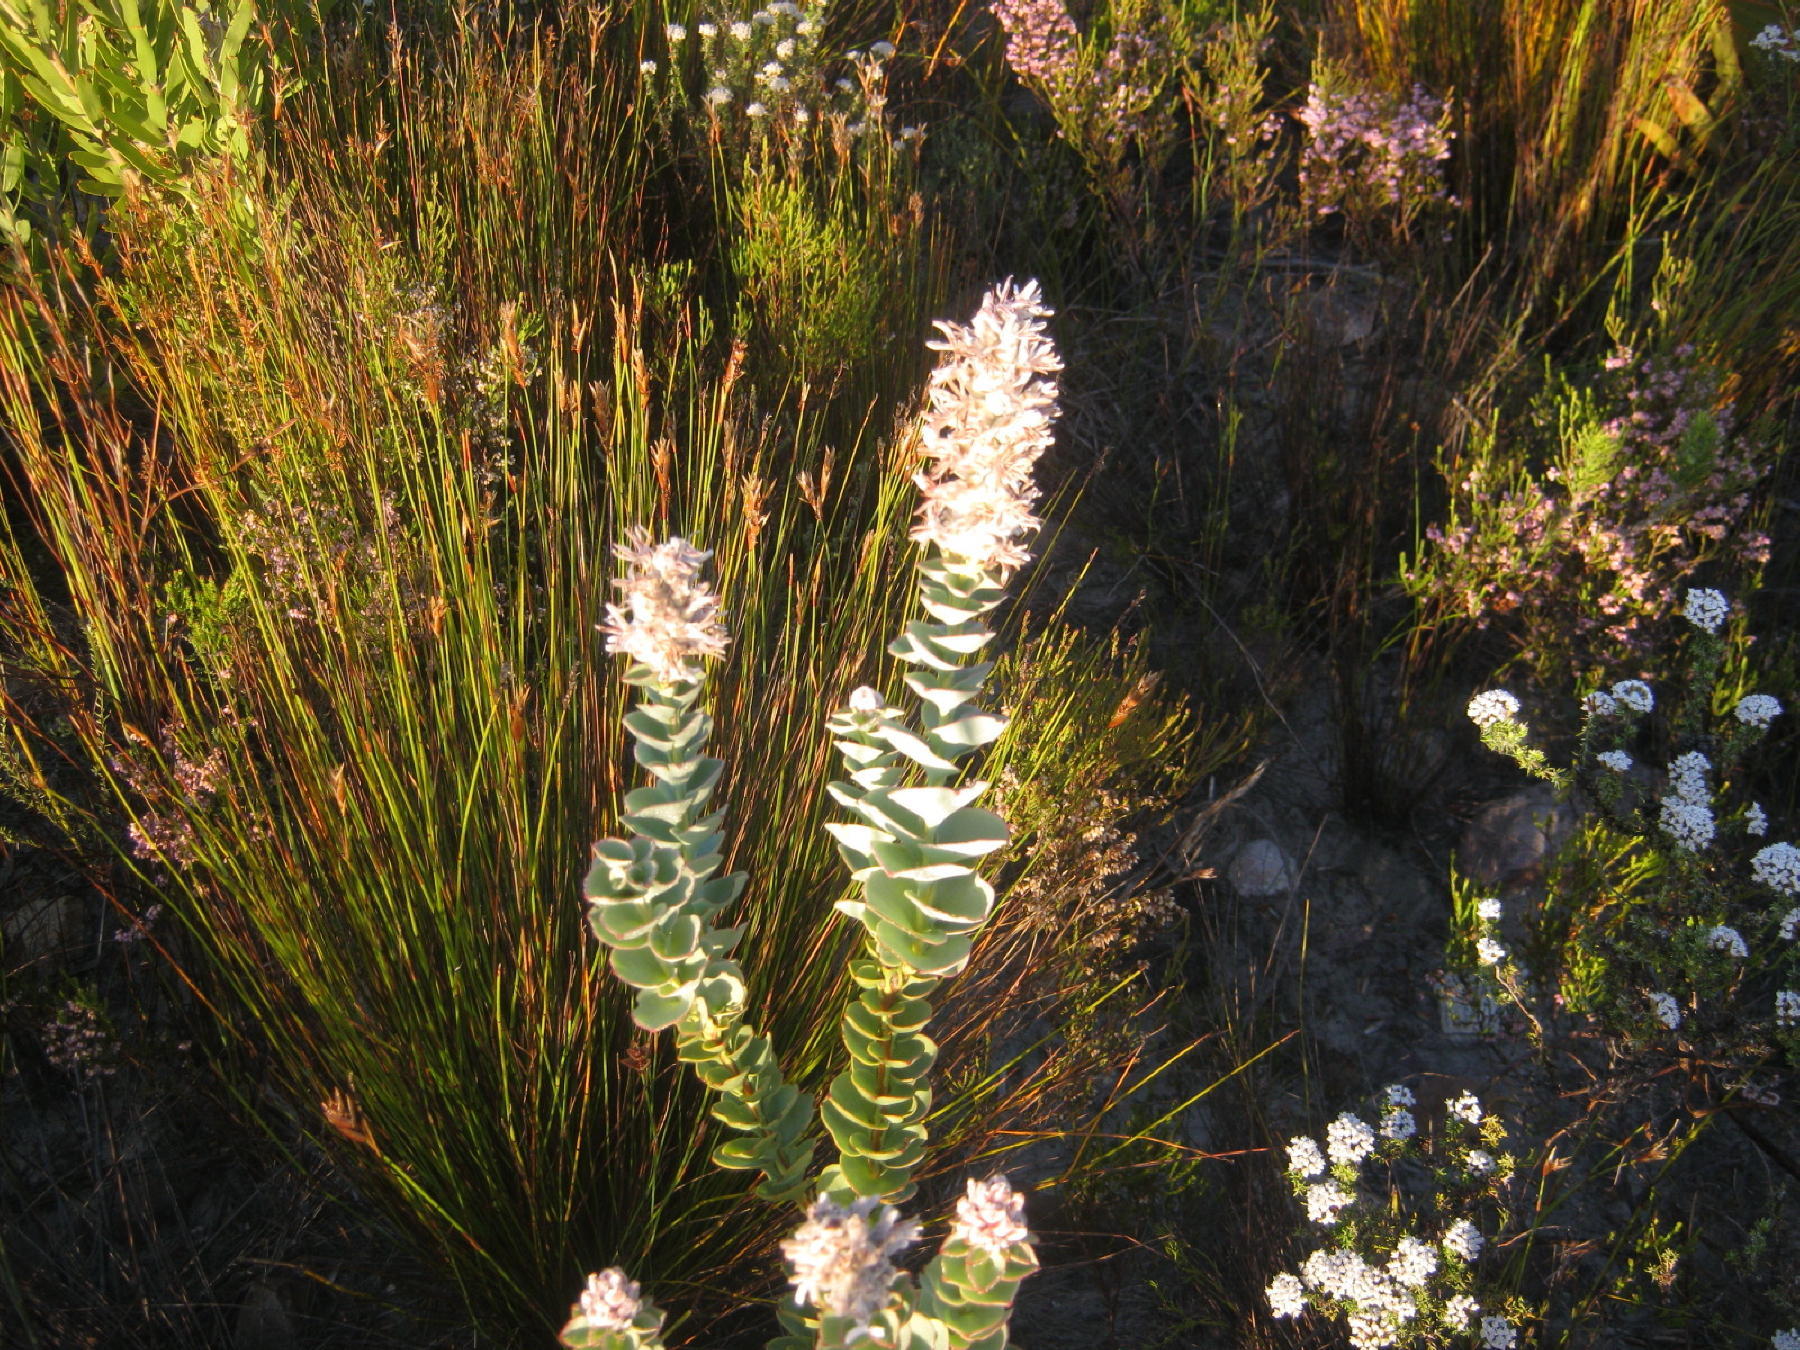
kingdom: Plantae
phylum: Tracheophyta
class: Magnoliopsida
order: Proteales
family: Proteaceae
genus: Paranomus
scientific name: Paranomus spathulatus
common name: Langeberg sceptre
